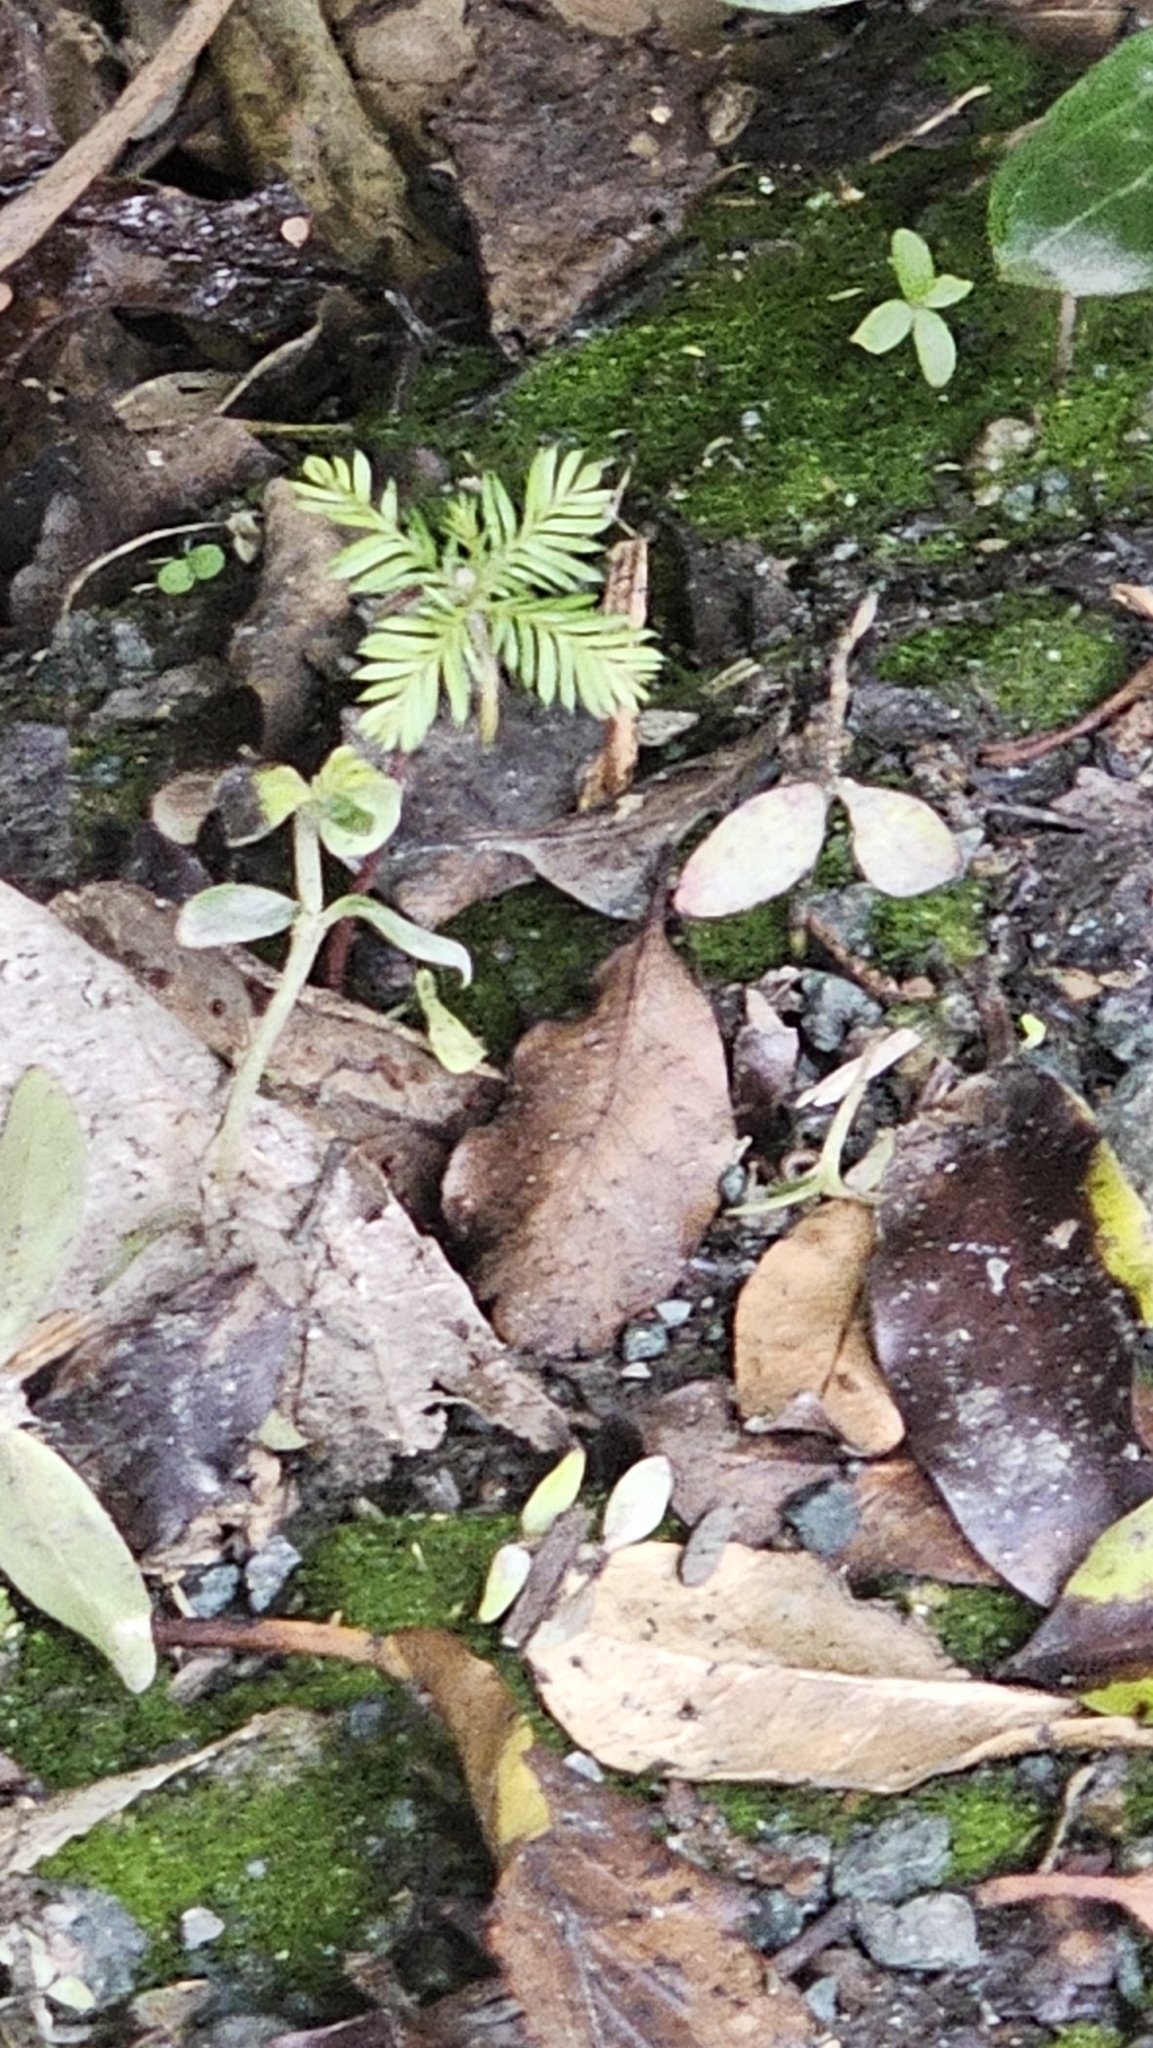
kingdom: Plantae
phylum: Tracheophyta
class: Pinopsida
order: Pinales
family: Podocarpaceae
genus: Dacrycarpus
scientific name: Dacrycarpus dacrydioides
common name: White pine
